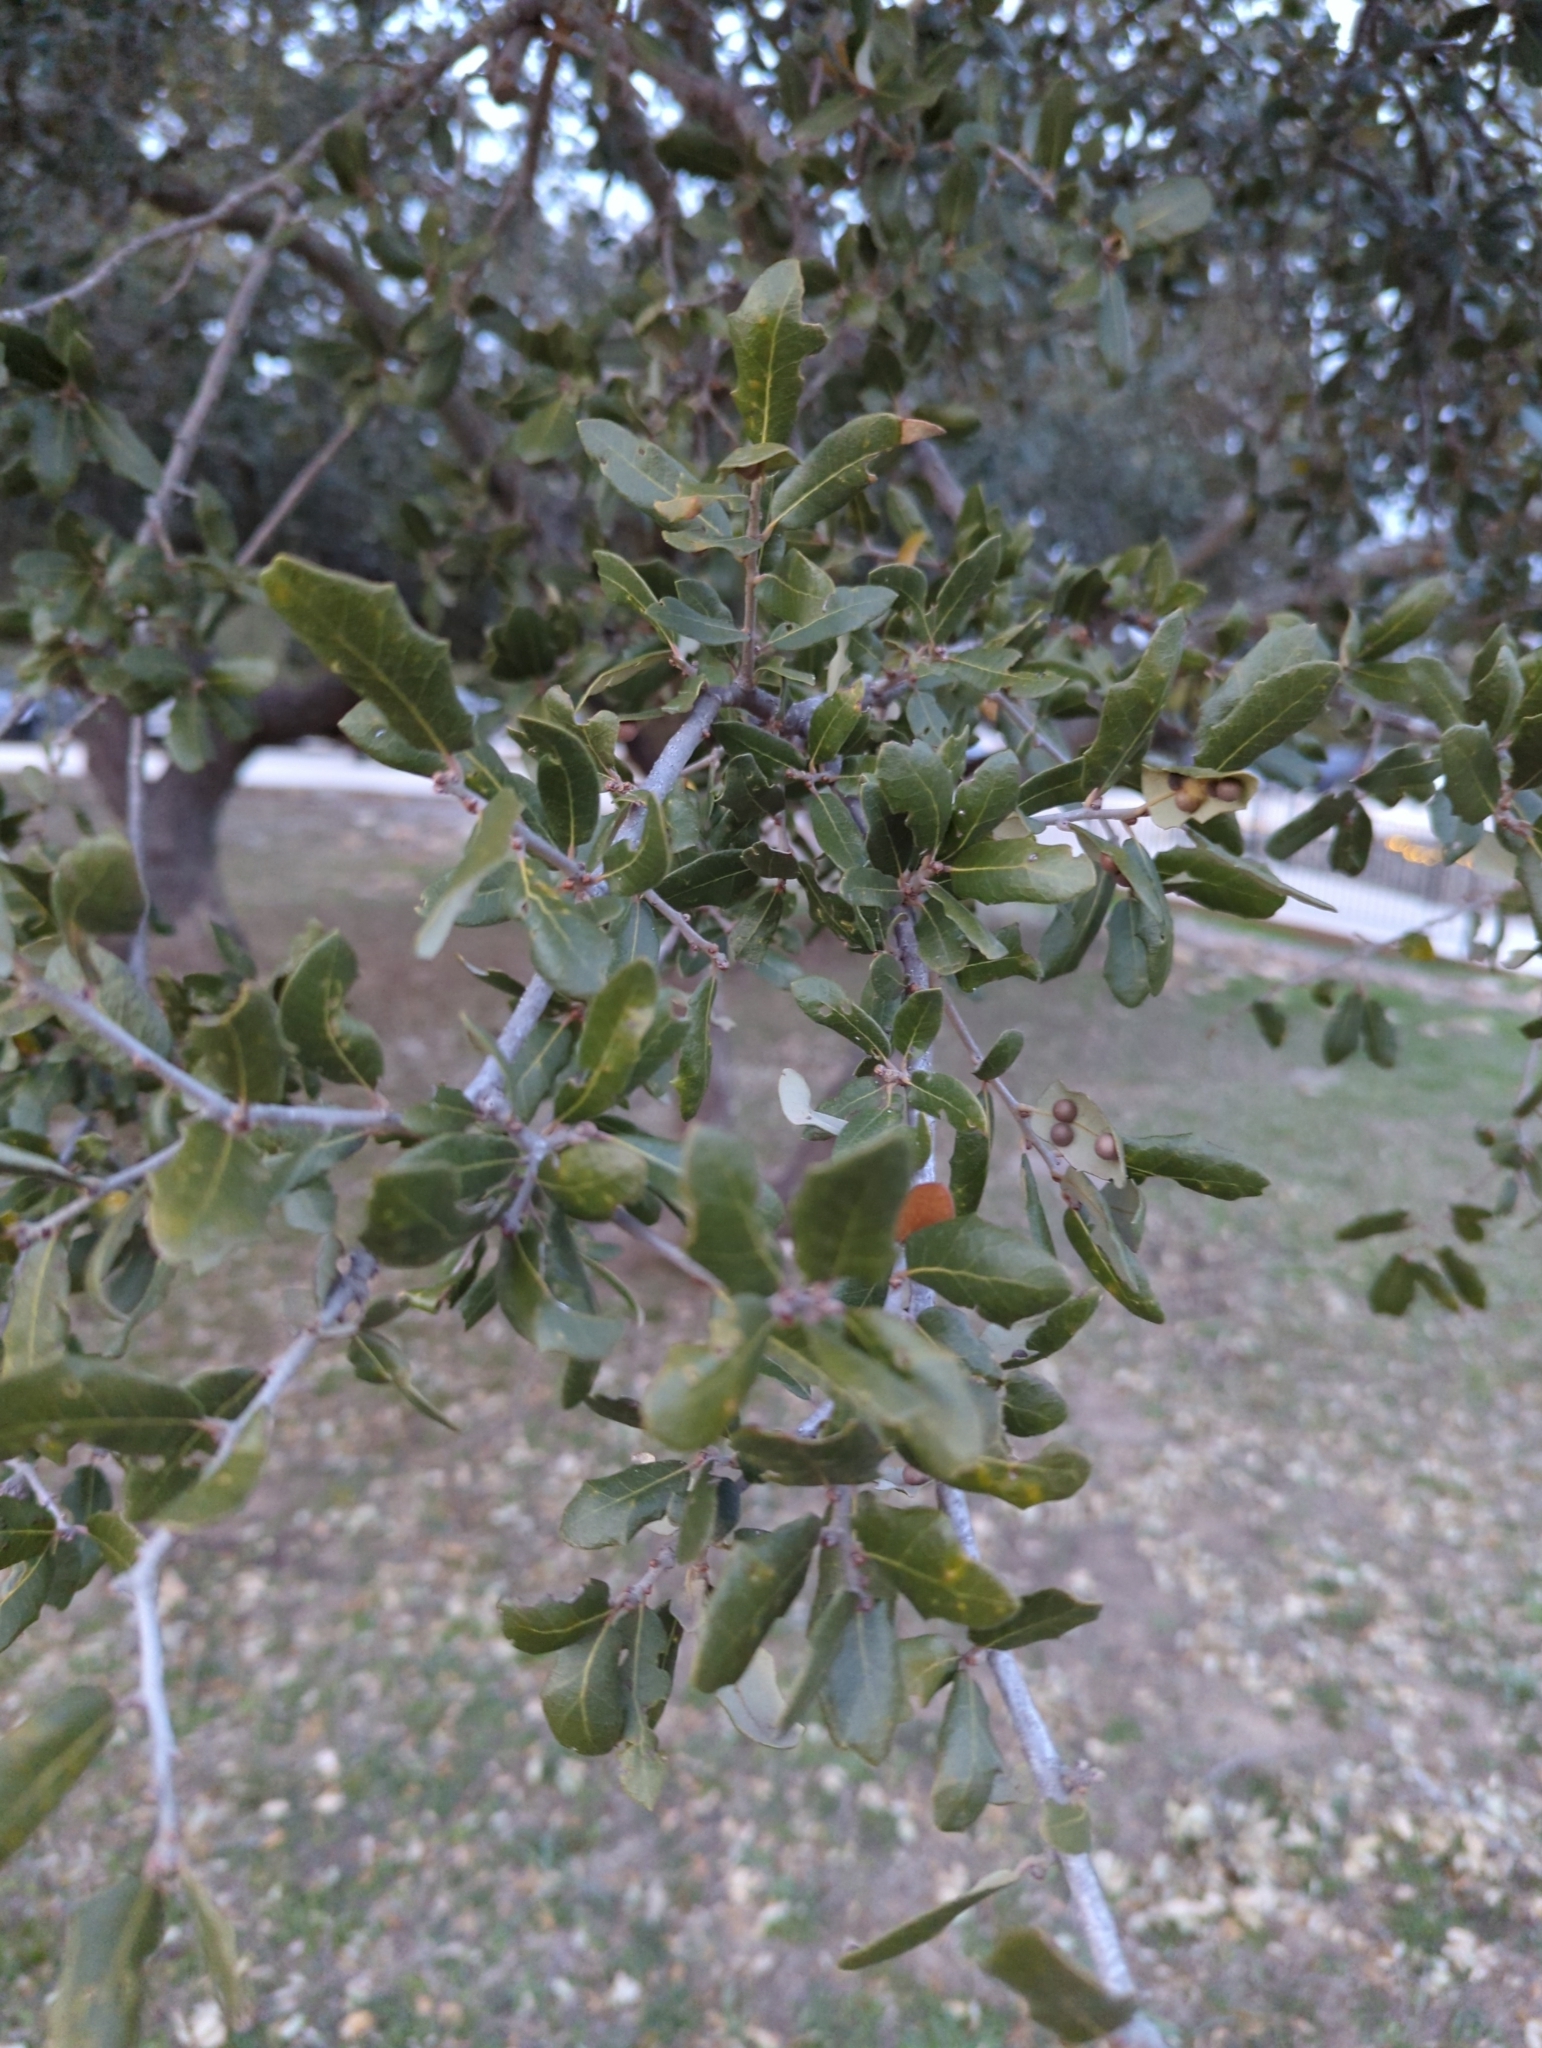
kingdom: Plantae
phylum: Tracheophyta
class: Magnoliopsida
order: Fagales
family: Fagaceae
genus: Quercus
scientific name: Quercus fusiformis
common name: Texas live oak
